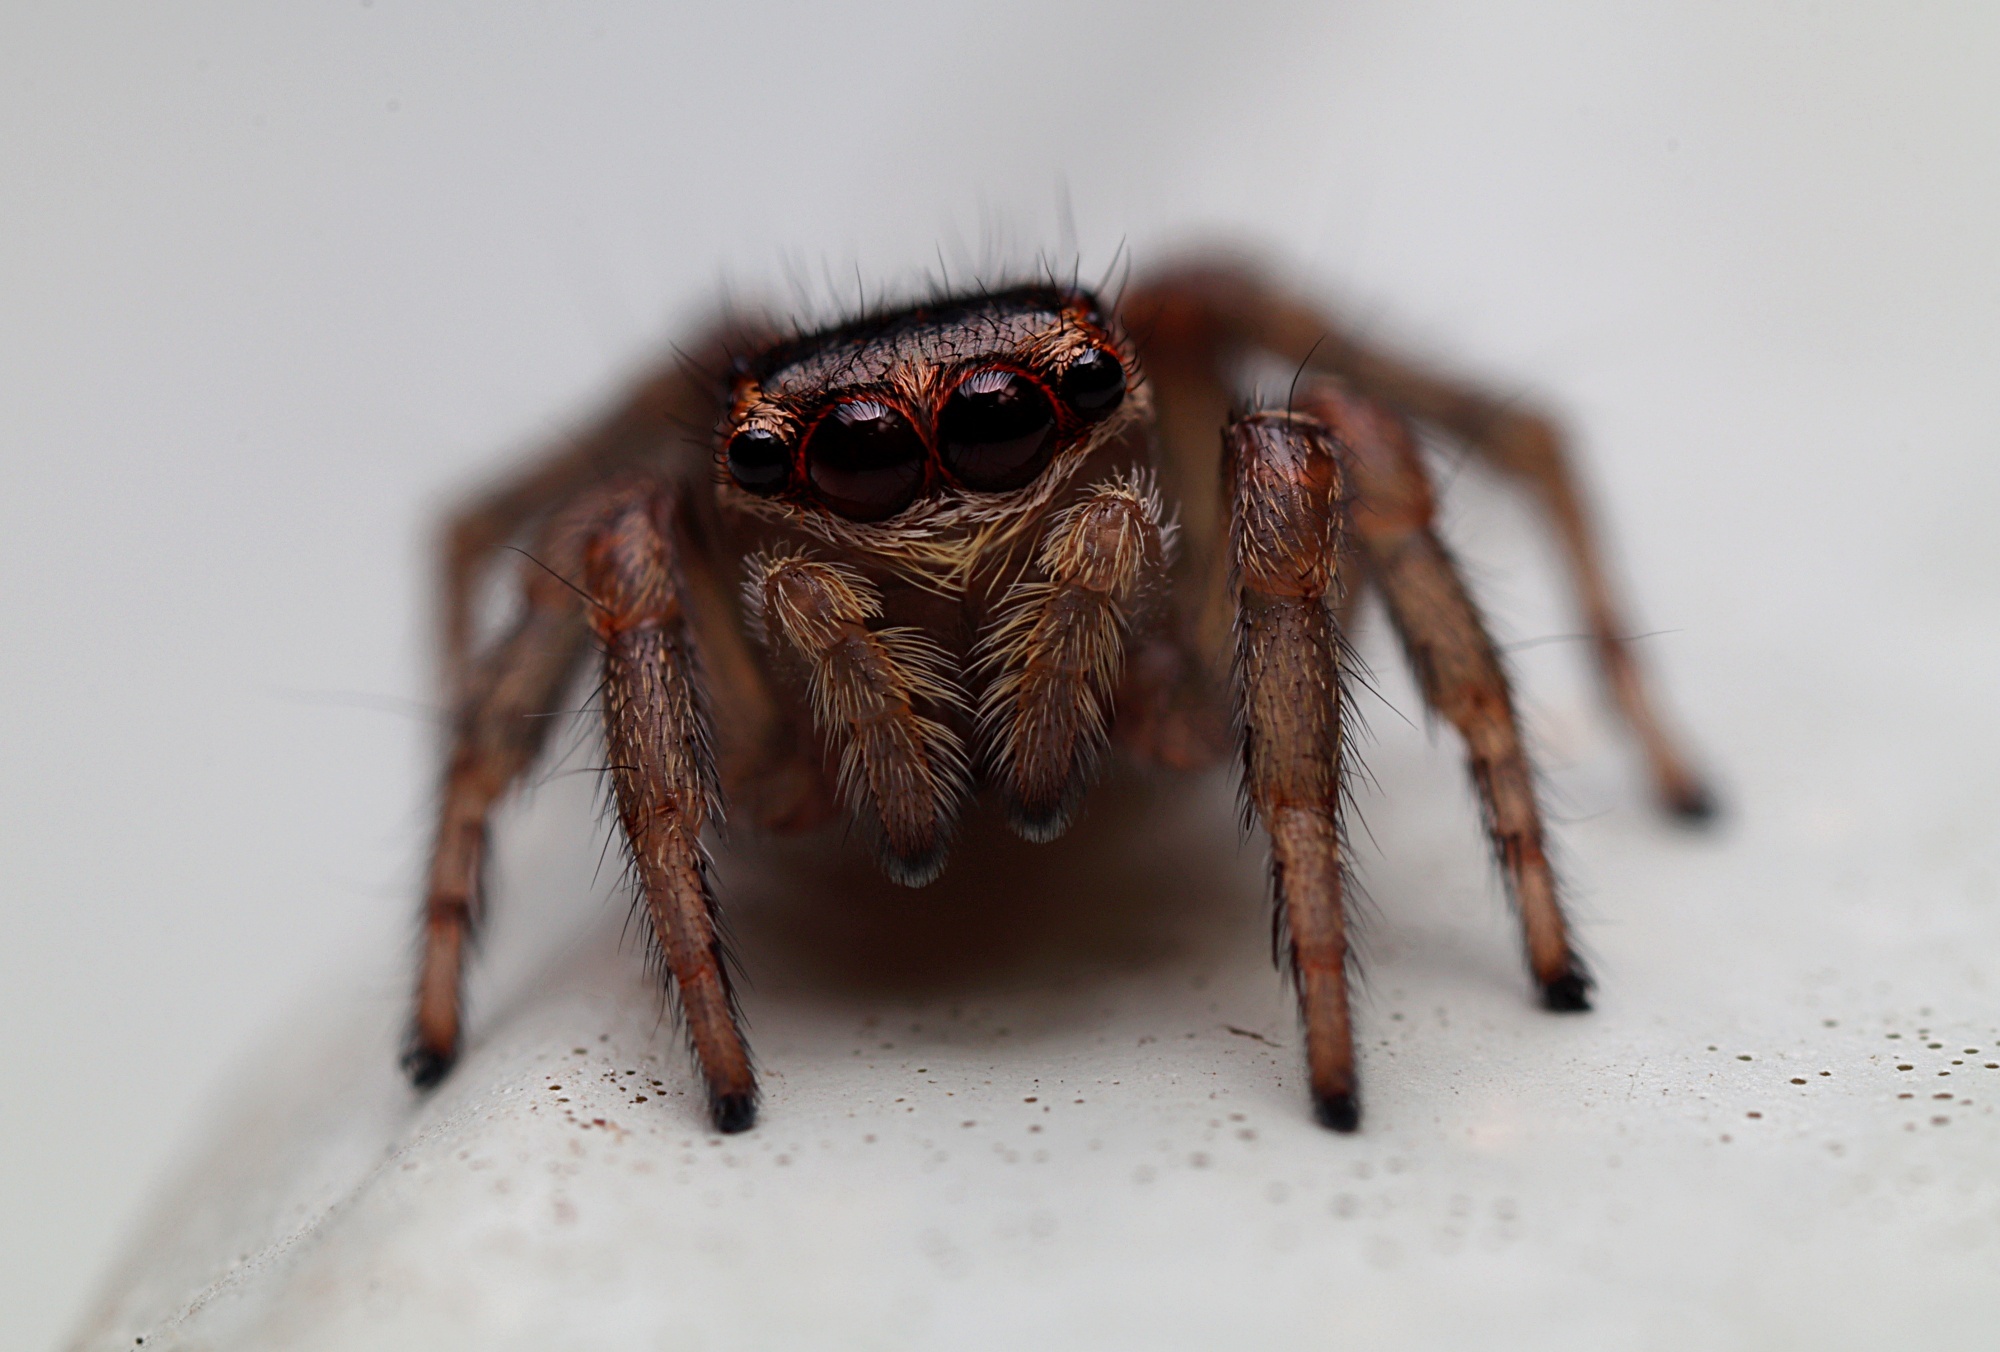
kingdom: Animalia
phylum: Arthropoda
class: Arachnida
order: Araneae
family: Salticidae
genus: Maratus
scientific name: Maratus griseus
